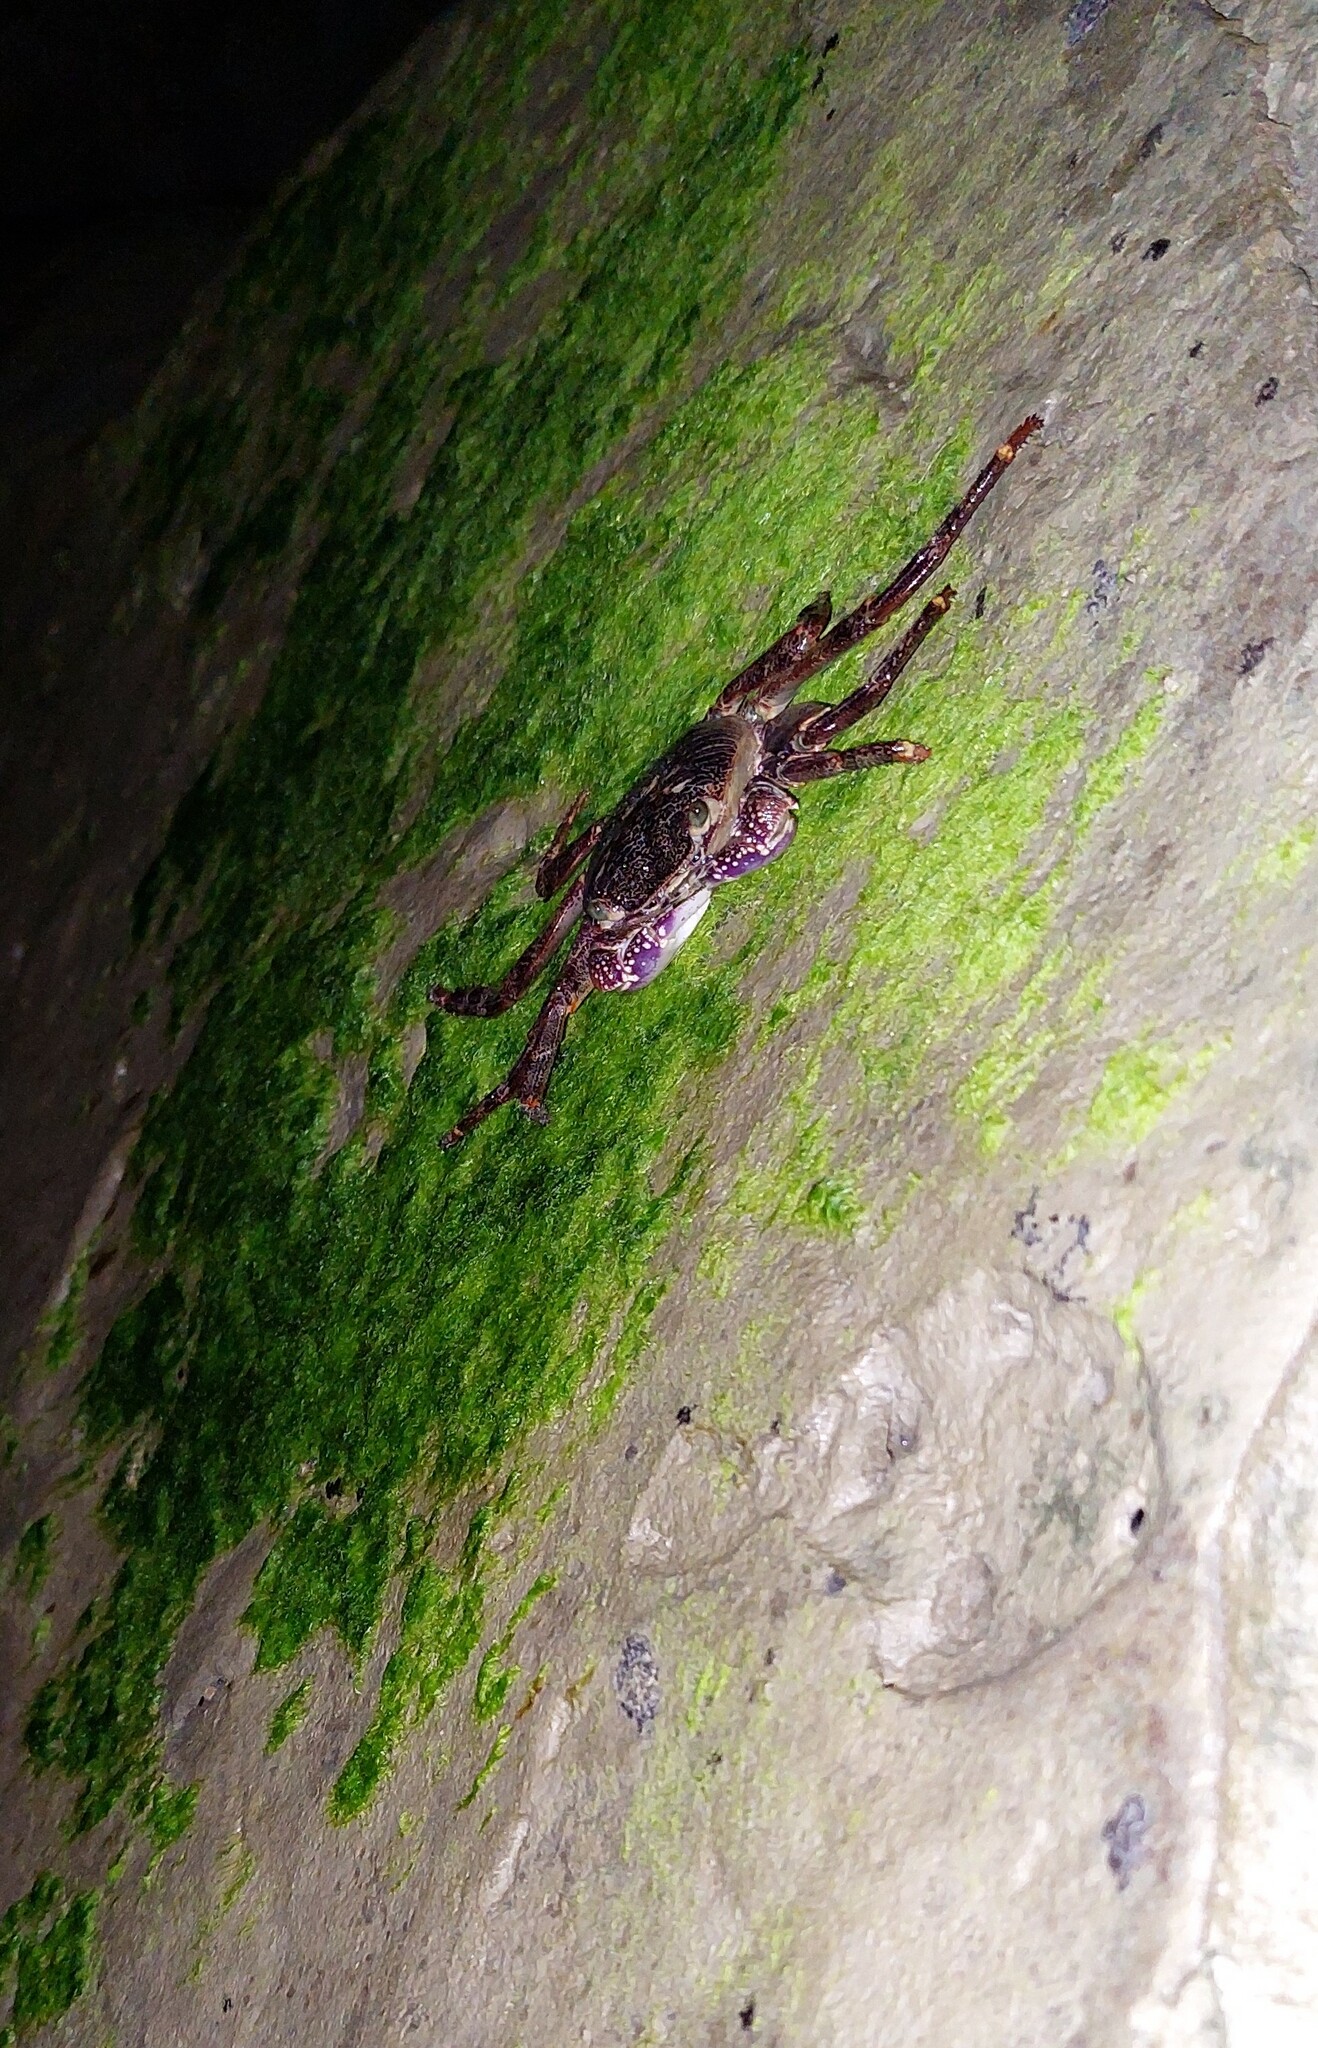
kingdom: Animalia
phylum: Arthropoda
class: Malacostraca
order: Decapoda
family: Grapsidae
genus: Leptograpsus
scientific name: Leptograpsus variegatus
